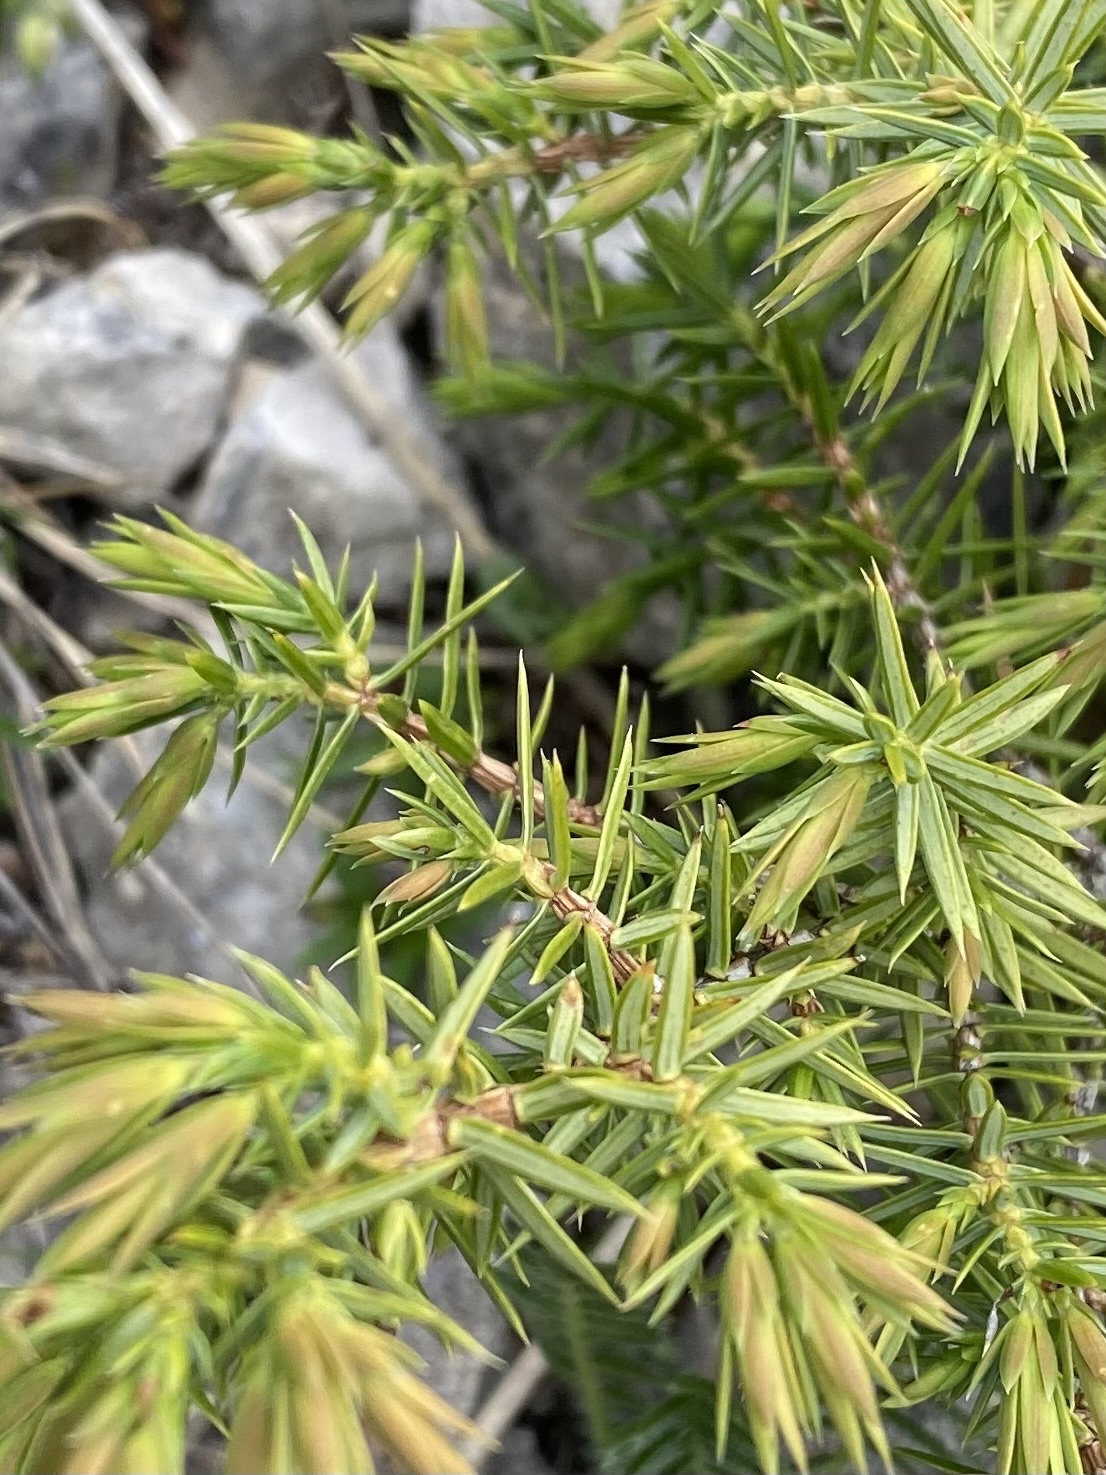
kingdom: Plantae
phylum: Tracheophyta
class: Pinopsida
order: Pinales
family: Cupressaceae
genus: Juniperus
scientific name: Juniperus communis
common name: Common juniper
